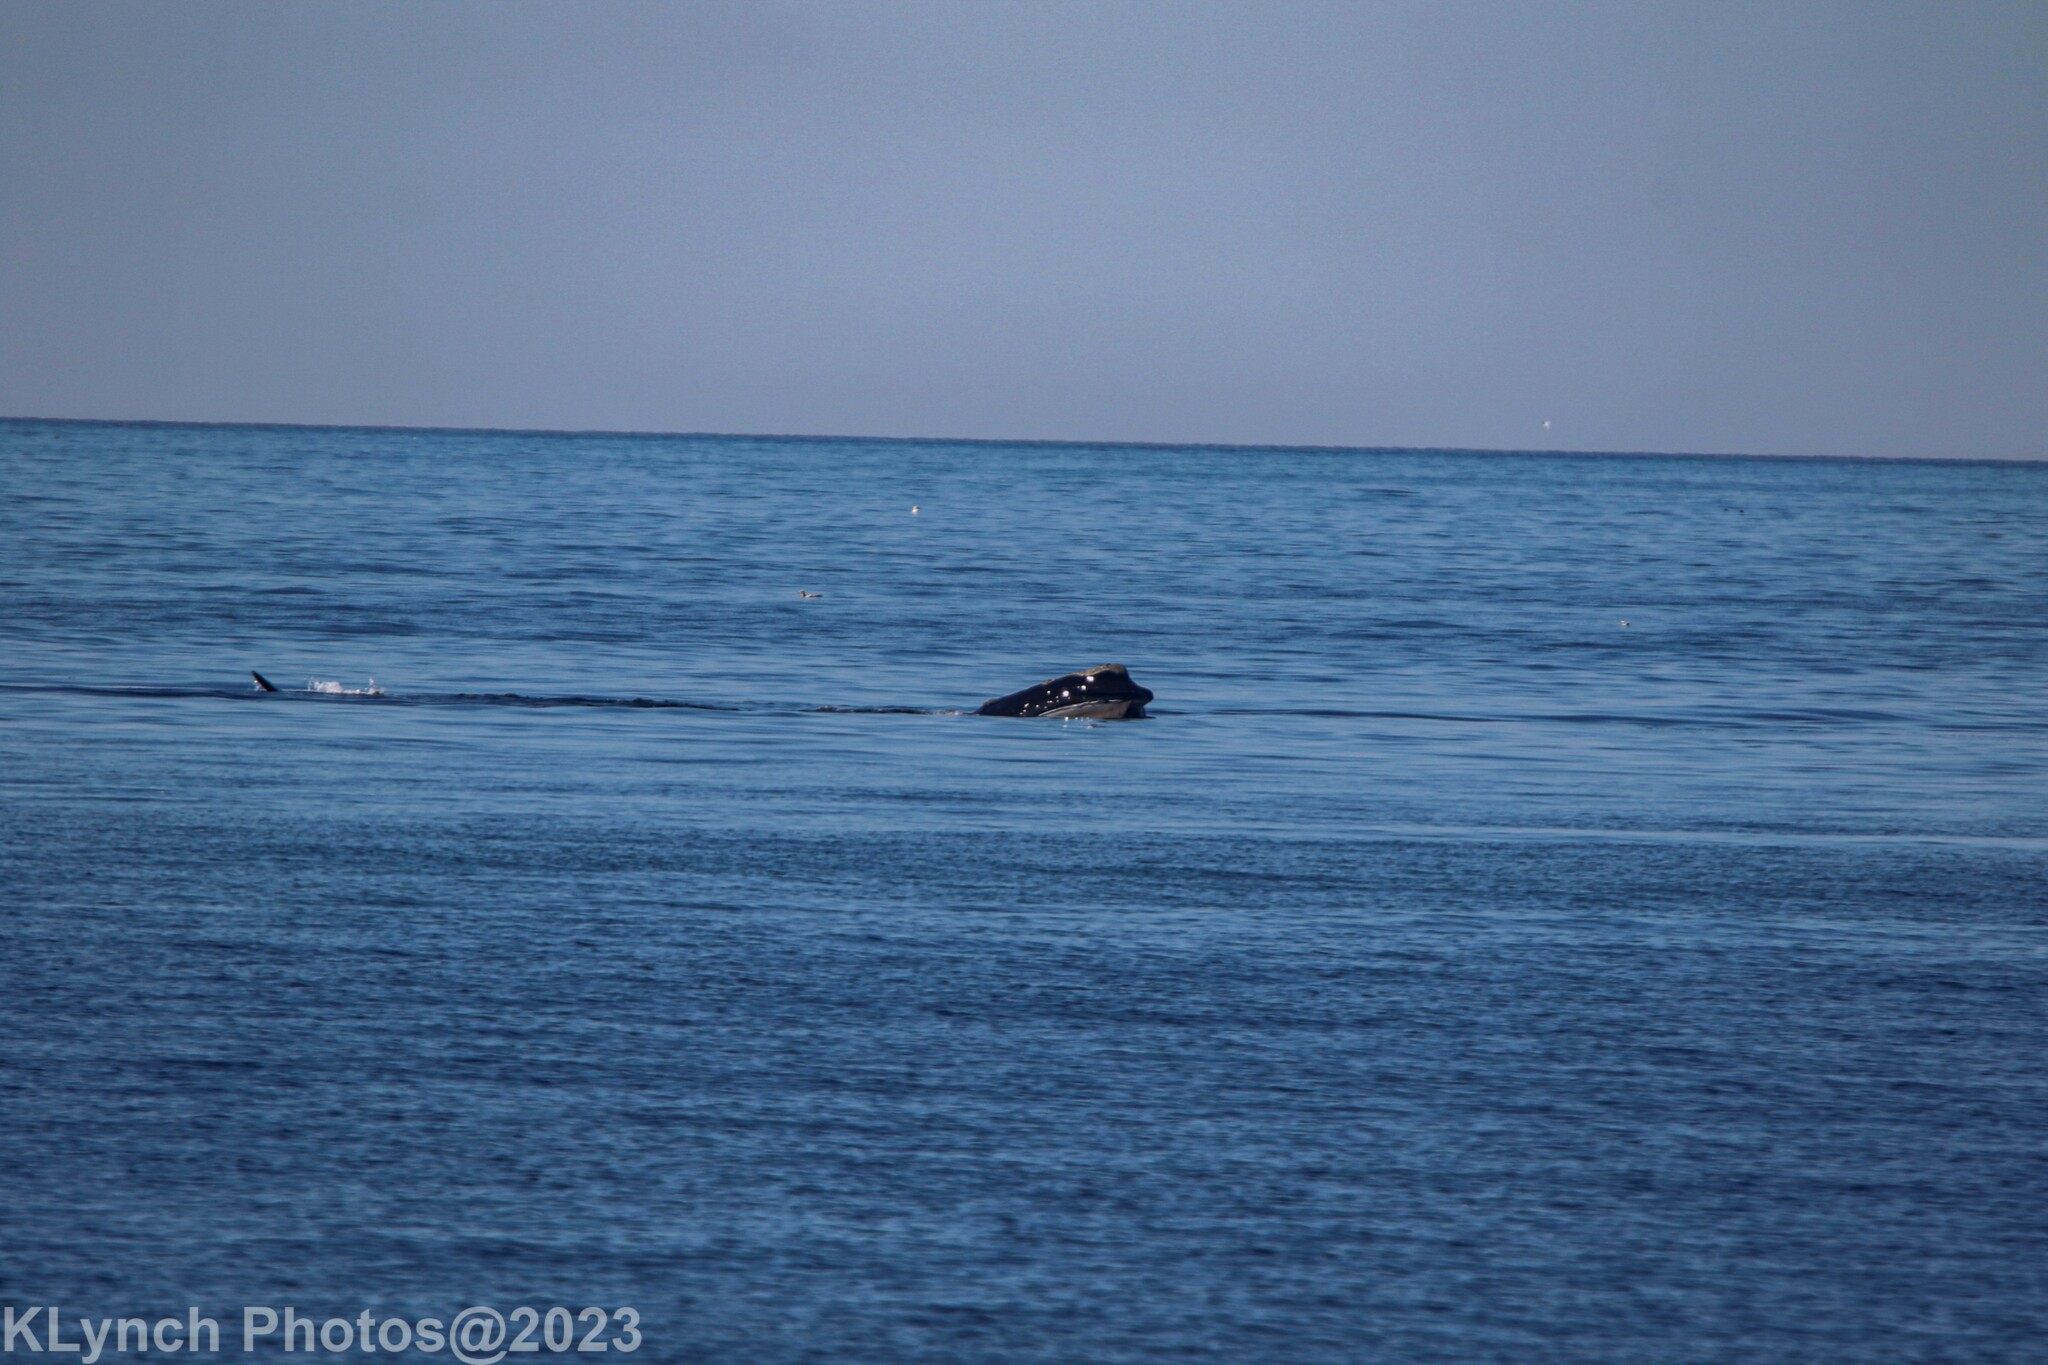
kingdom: Animalia
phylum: Chordata
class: Mammalia
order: Cetacea
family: Balaenidae
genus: Eubalaena
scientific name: Eubalaena glacialis
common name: North atlantic right whale
